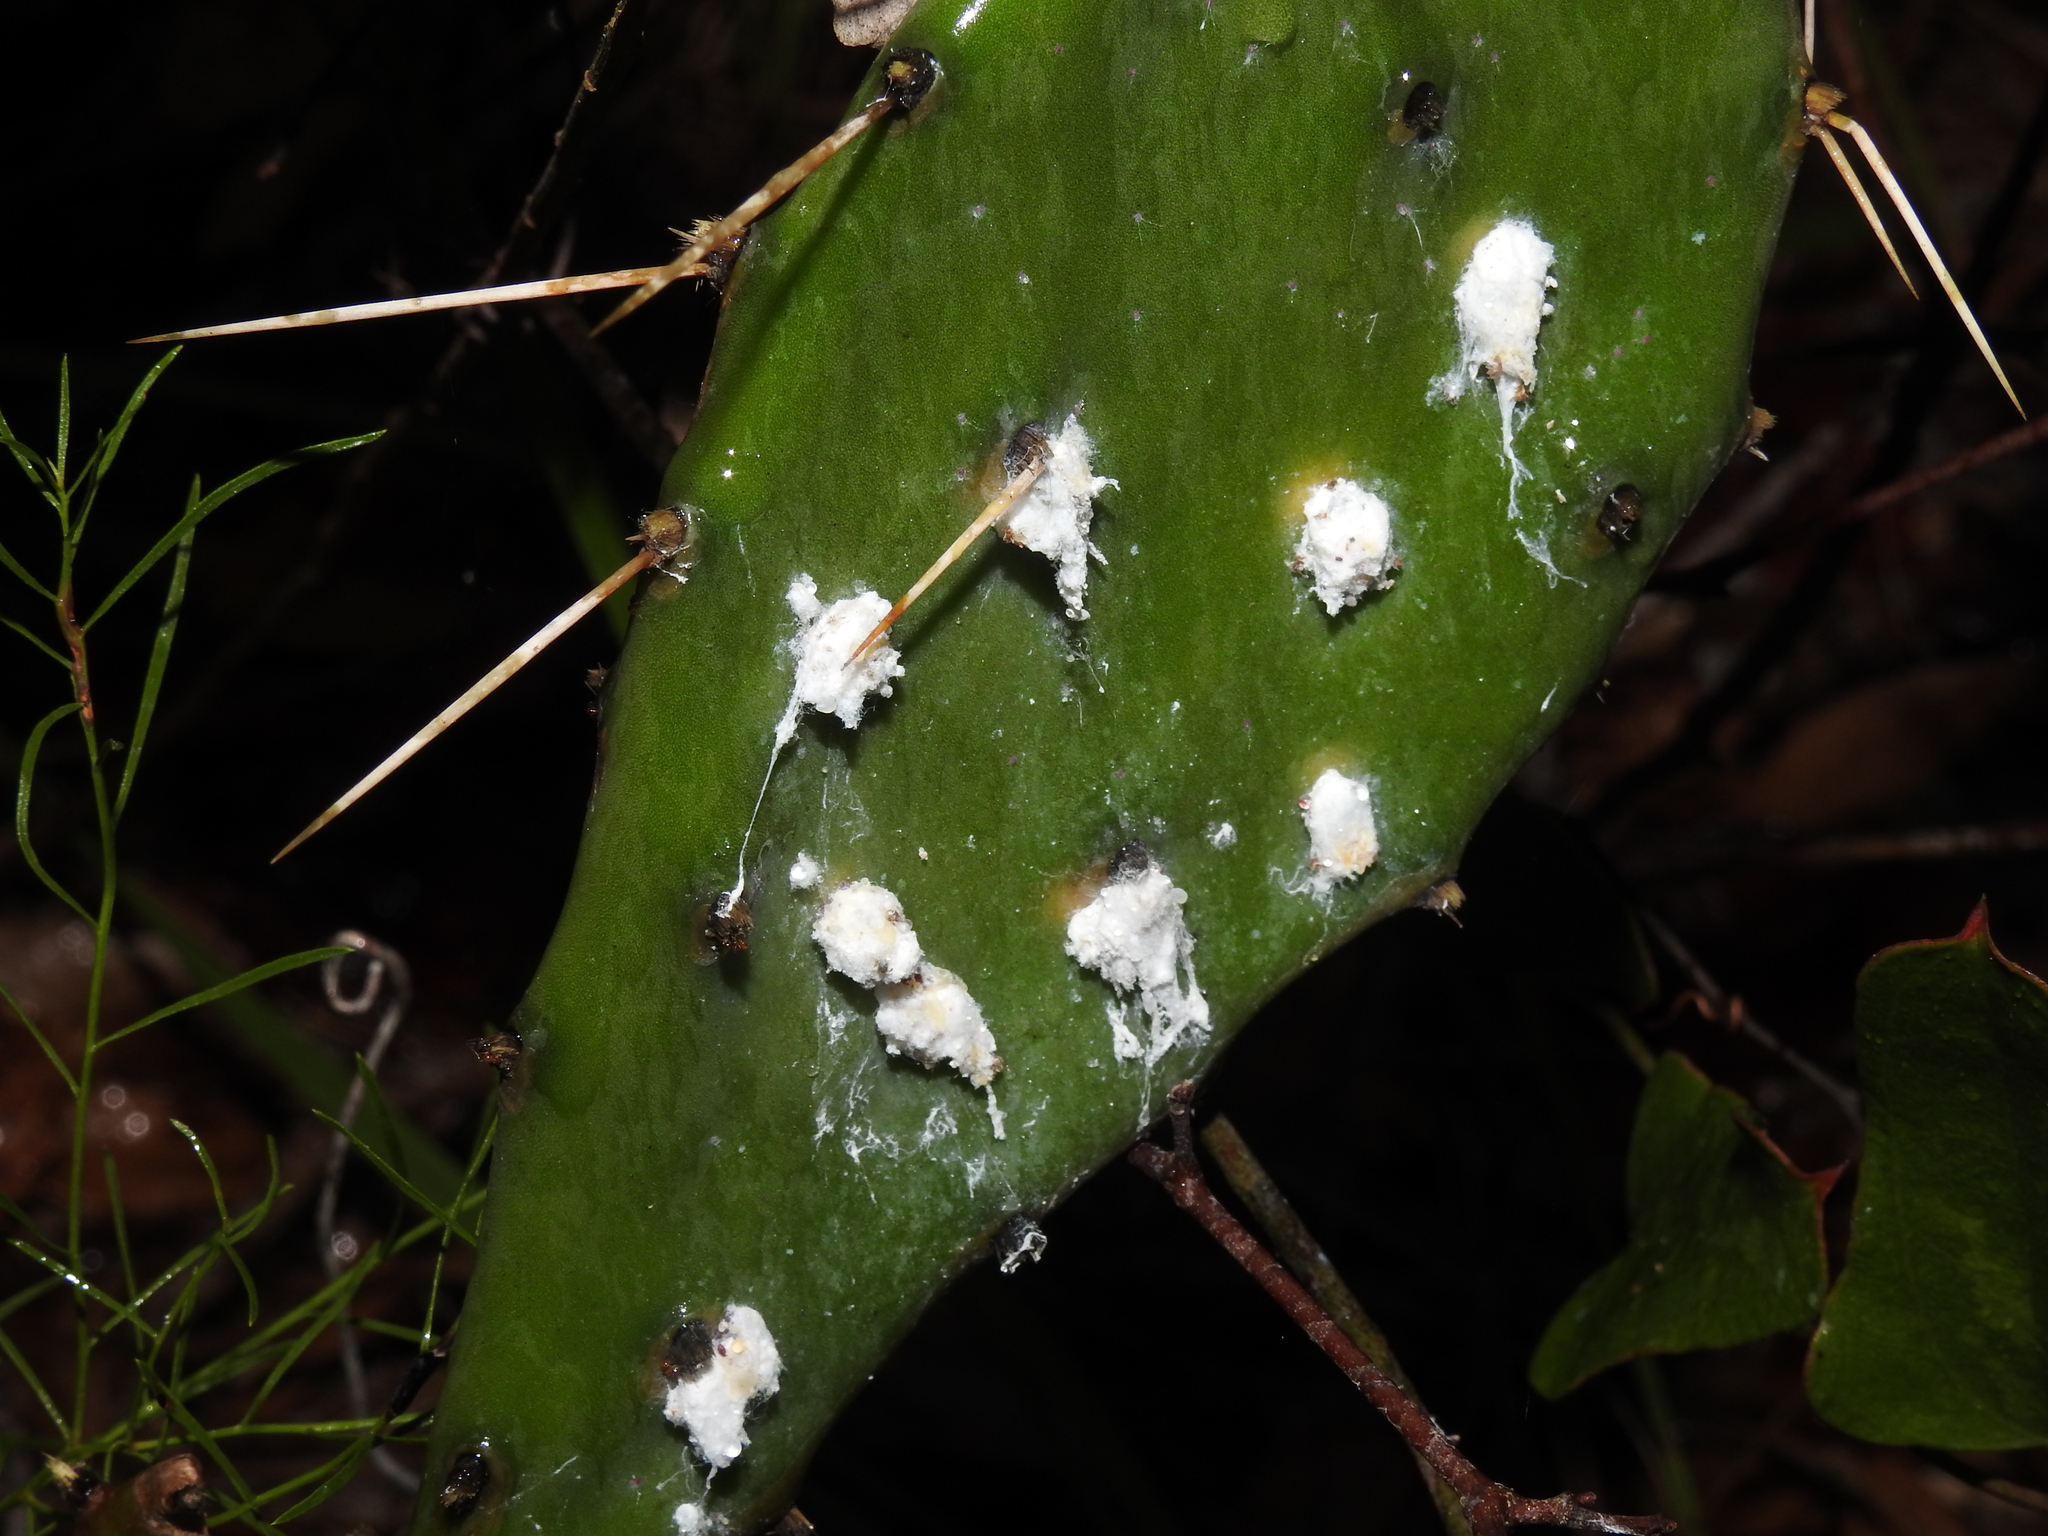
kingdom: Animalia
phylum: Arthropoda
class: Insecta
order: Hemiptera
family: Dactylopiidae
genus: Dactylopius
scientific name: Dactylopius confusus
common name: California cochineal scale
